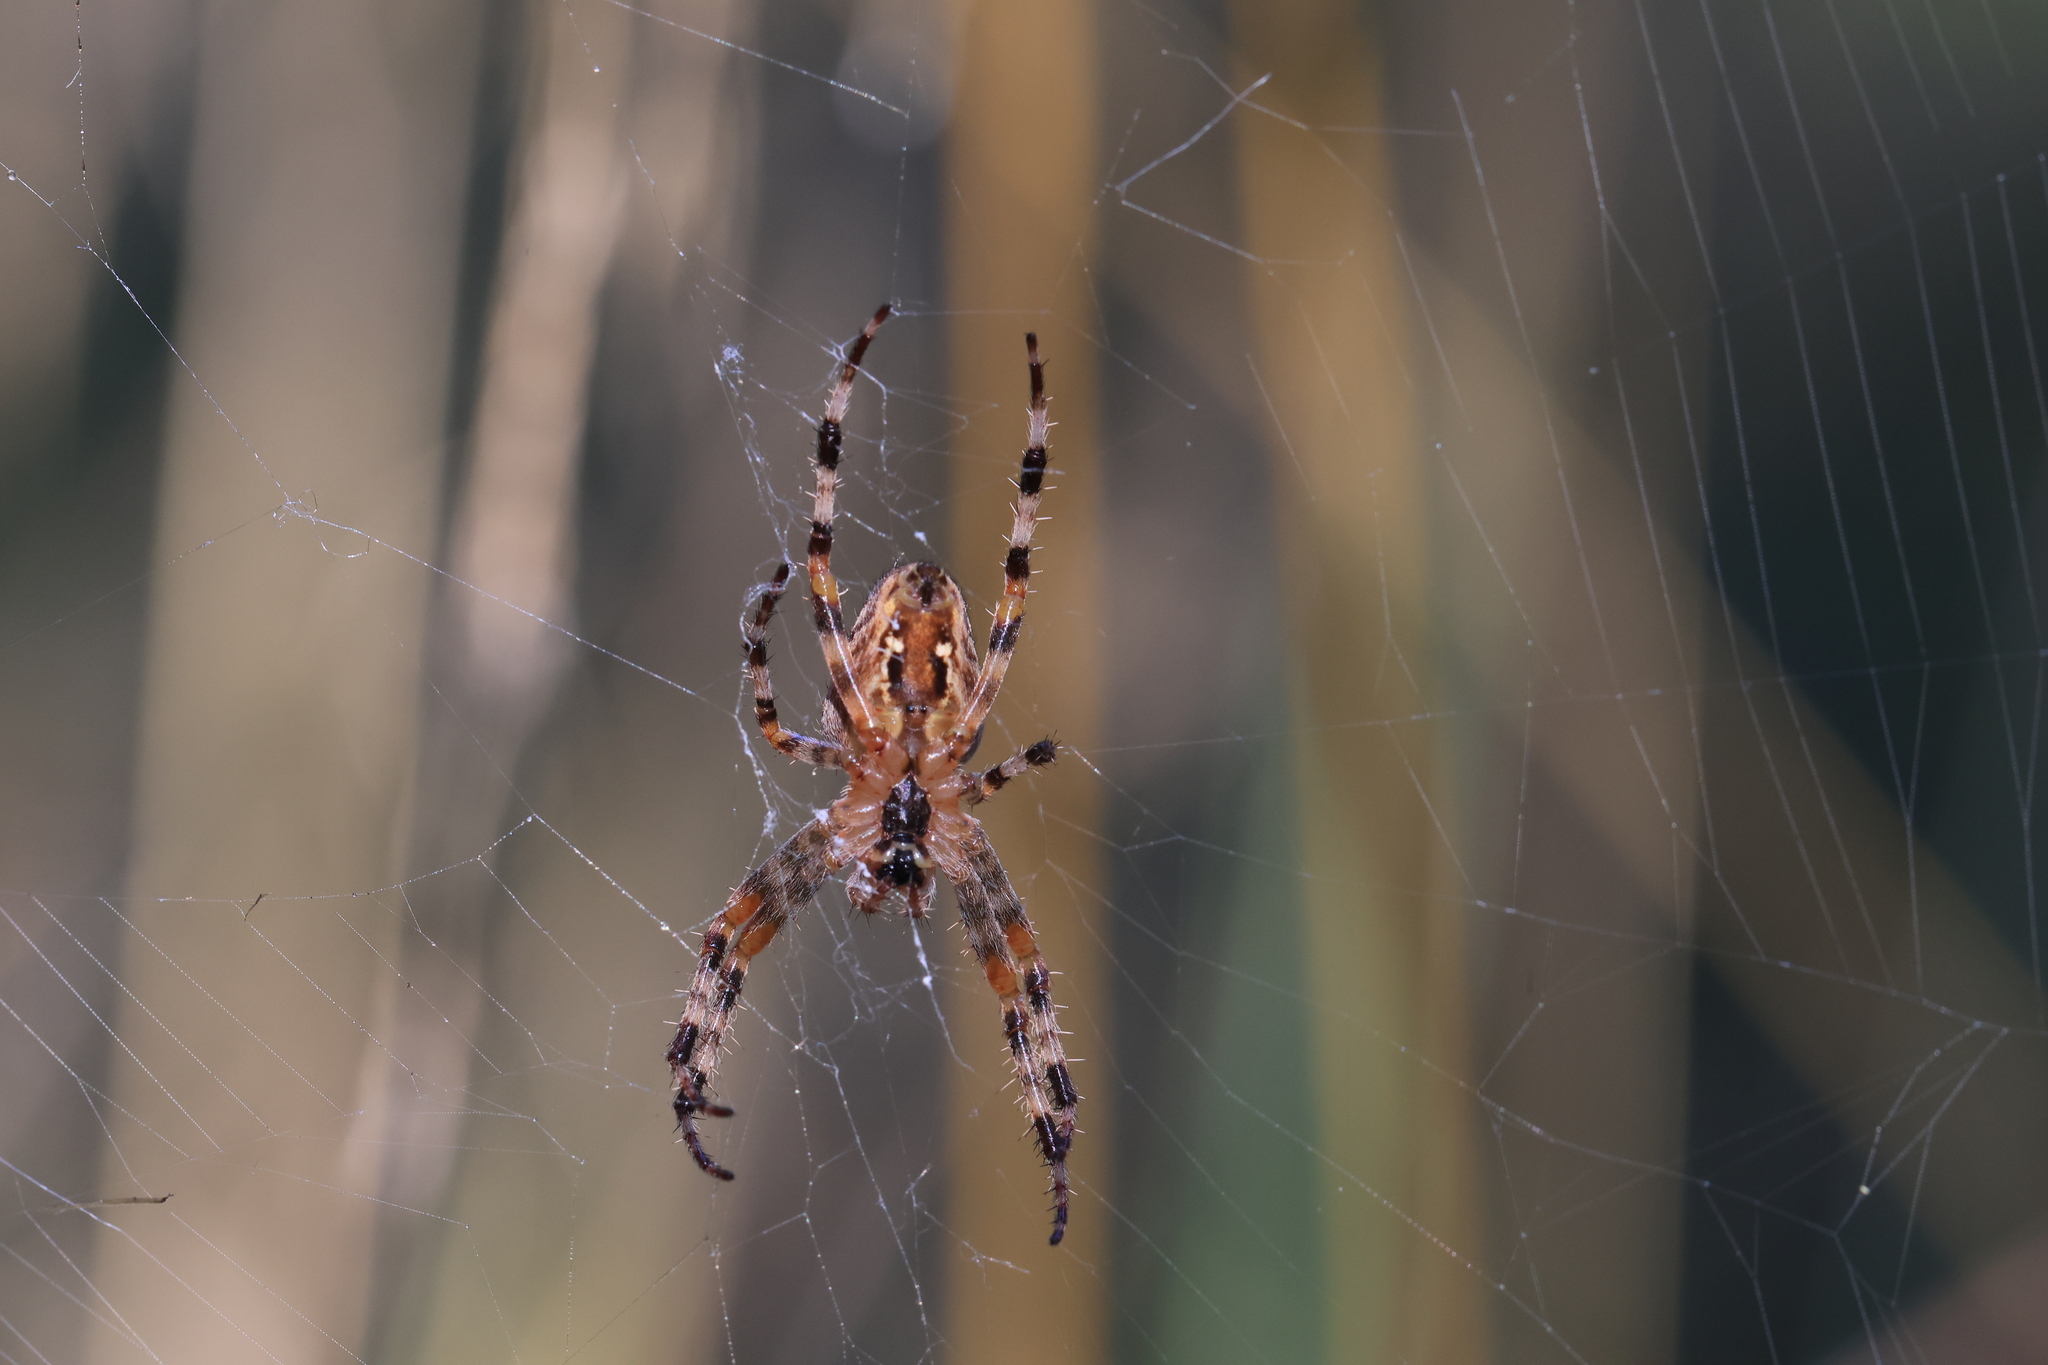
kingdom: Animalia
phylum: Arthropoda
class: Arachnida
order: Araneae
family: Araneidae
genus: Araneus
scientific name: Araneus diadematus
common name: Cross orbweaver
